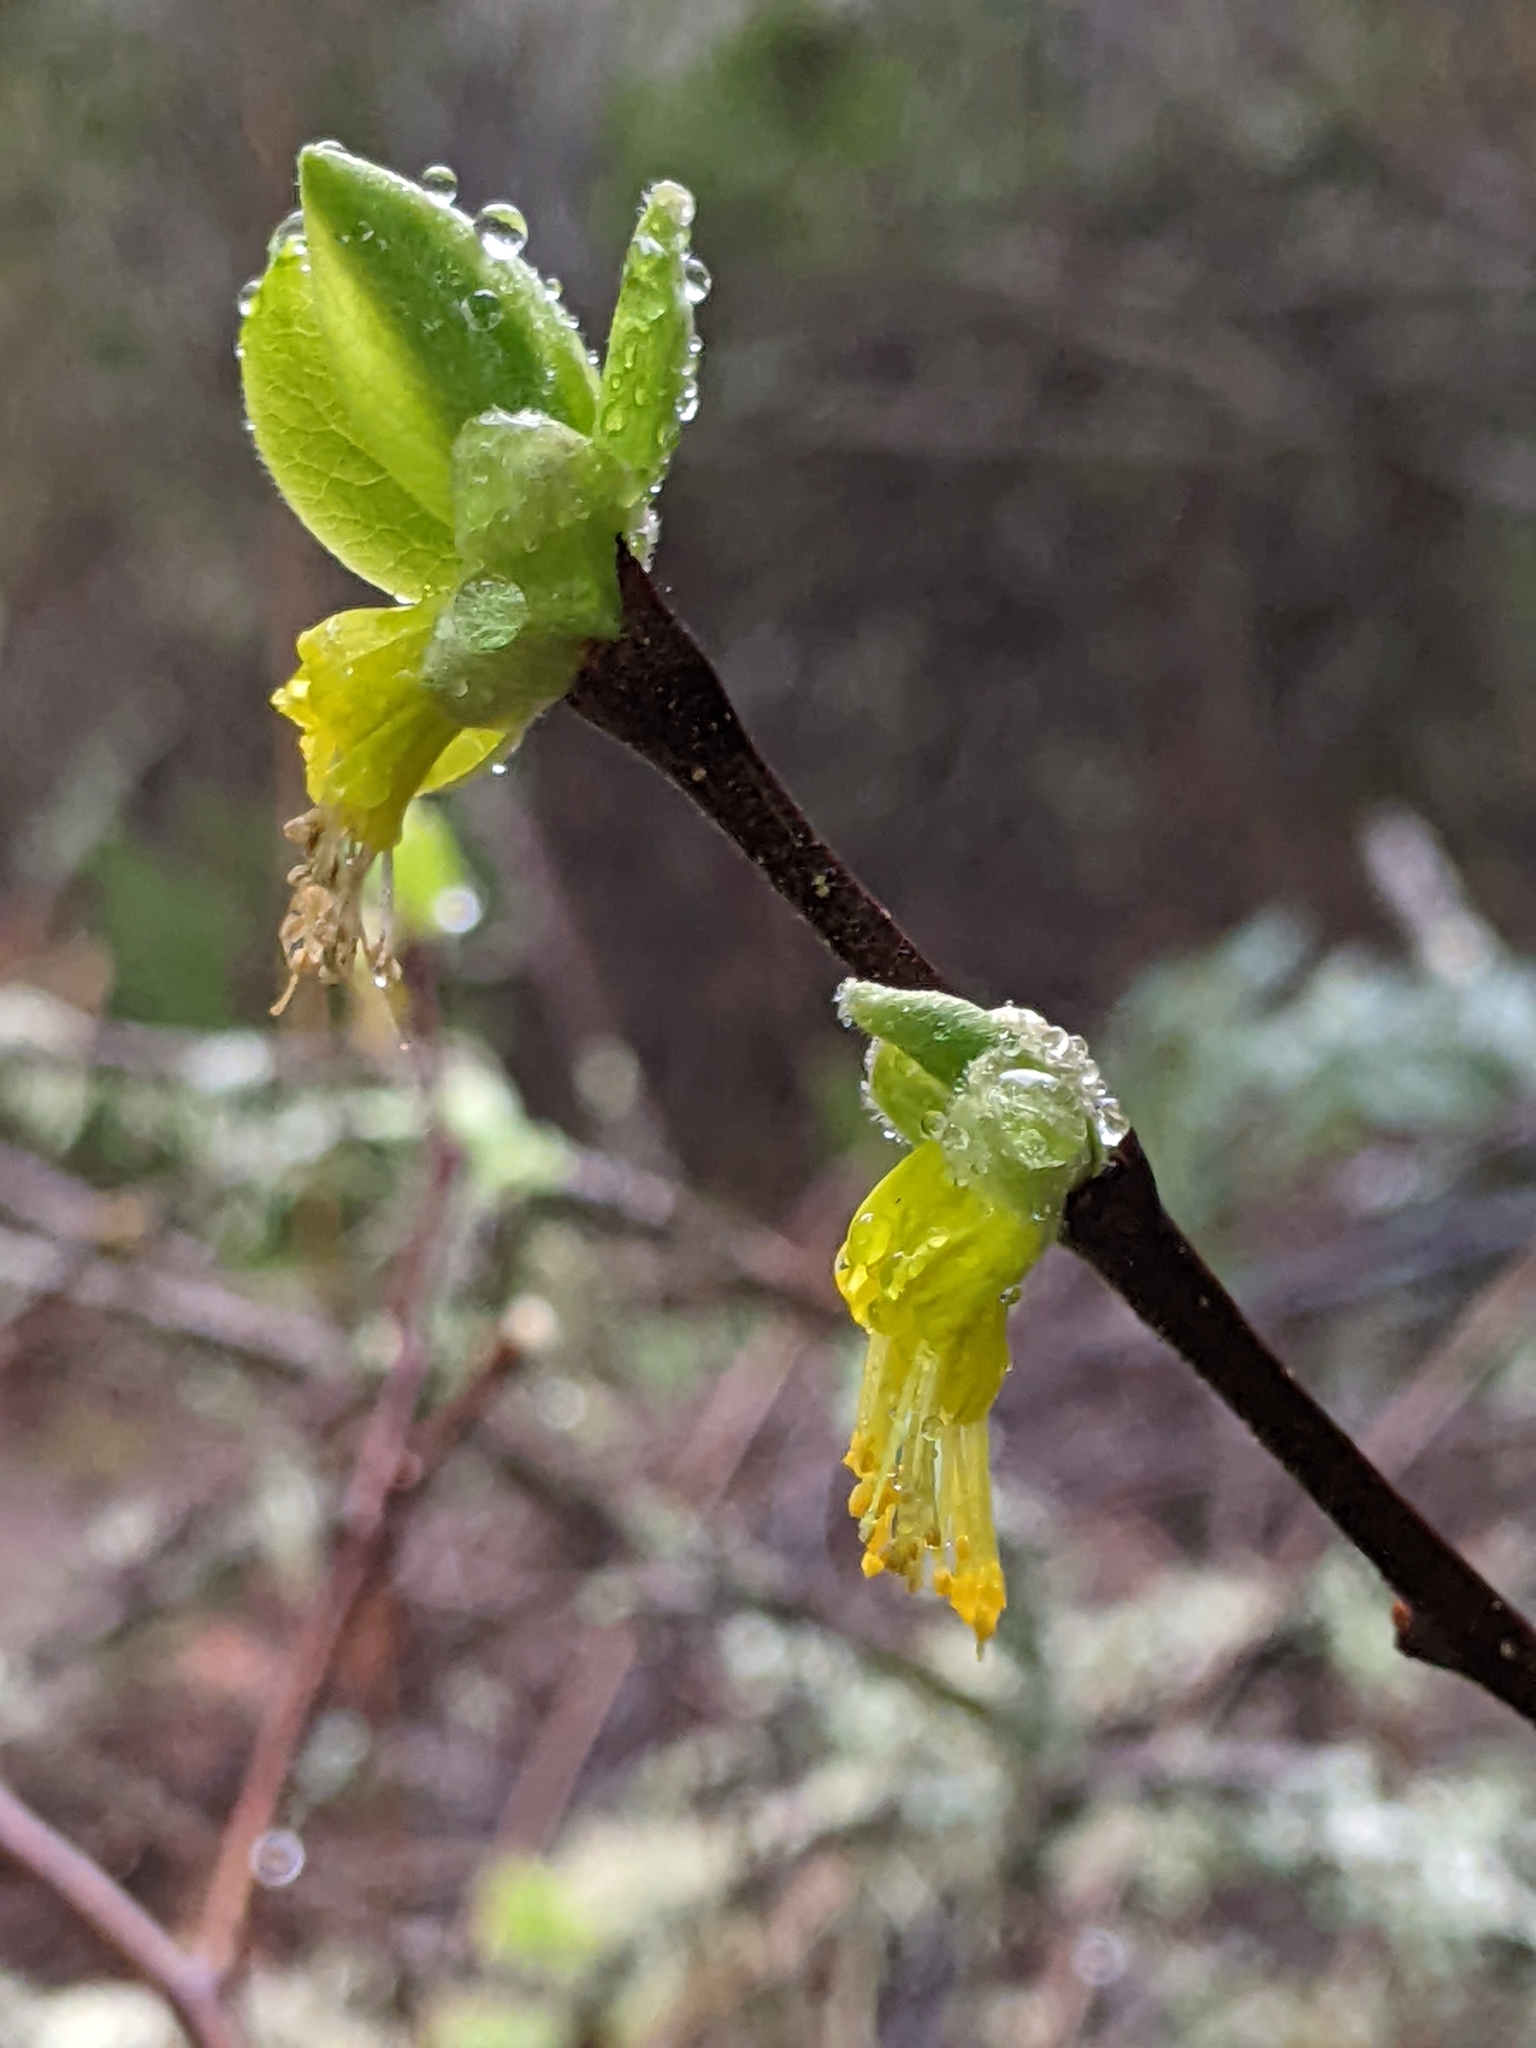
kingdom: Plantae
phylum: Tracheophyta
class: Magnoliopsida
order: Malvales
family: Thymelaeaceae
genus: Dirca
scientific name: Dirca occidentalis
